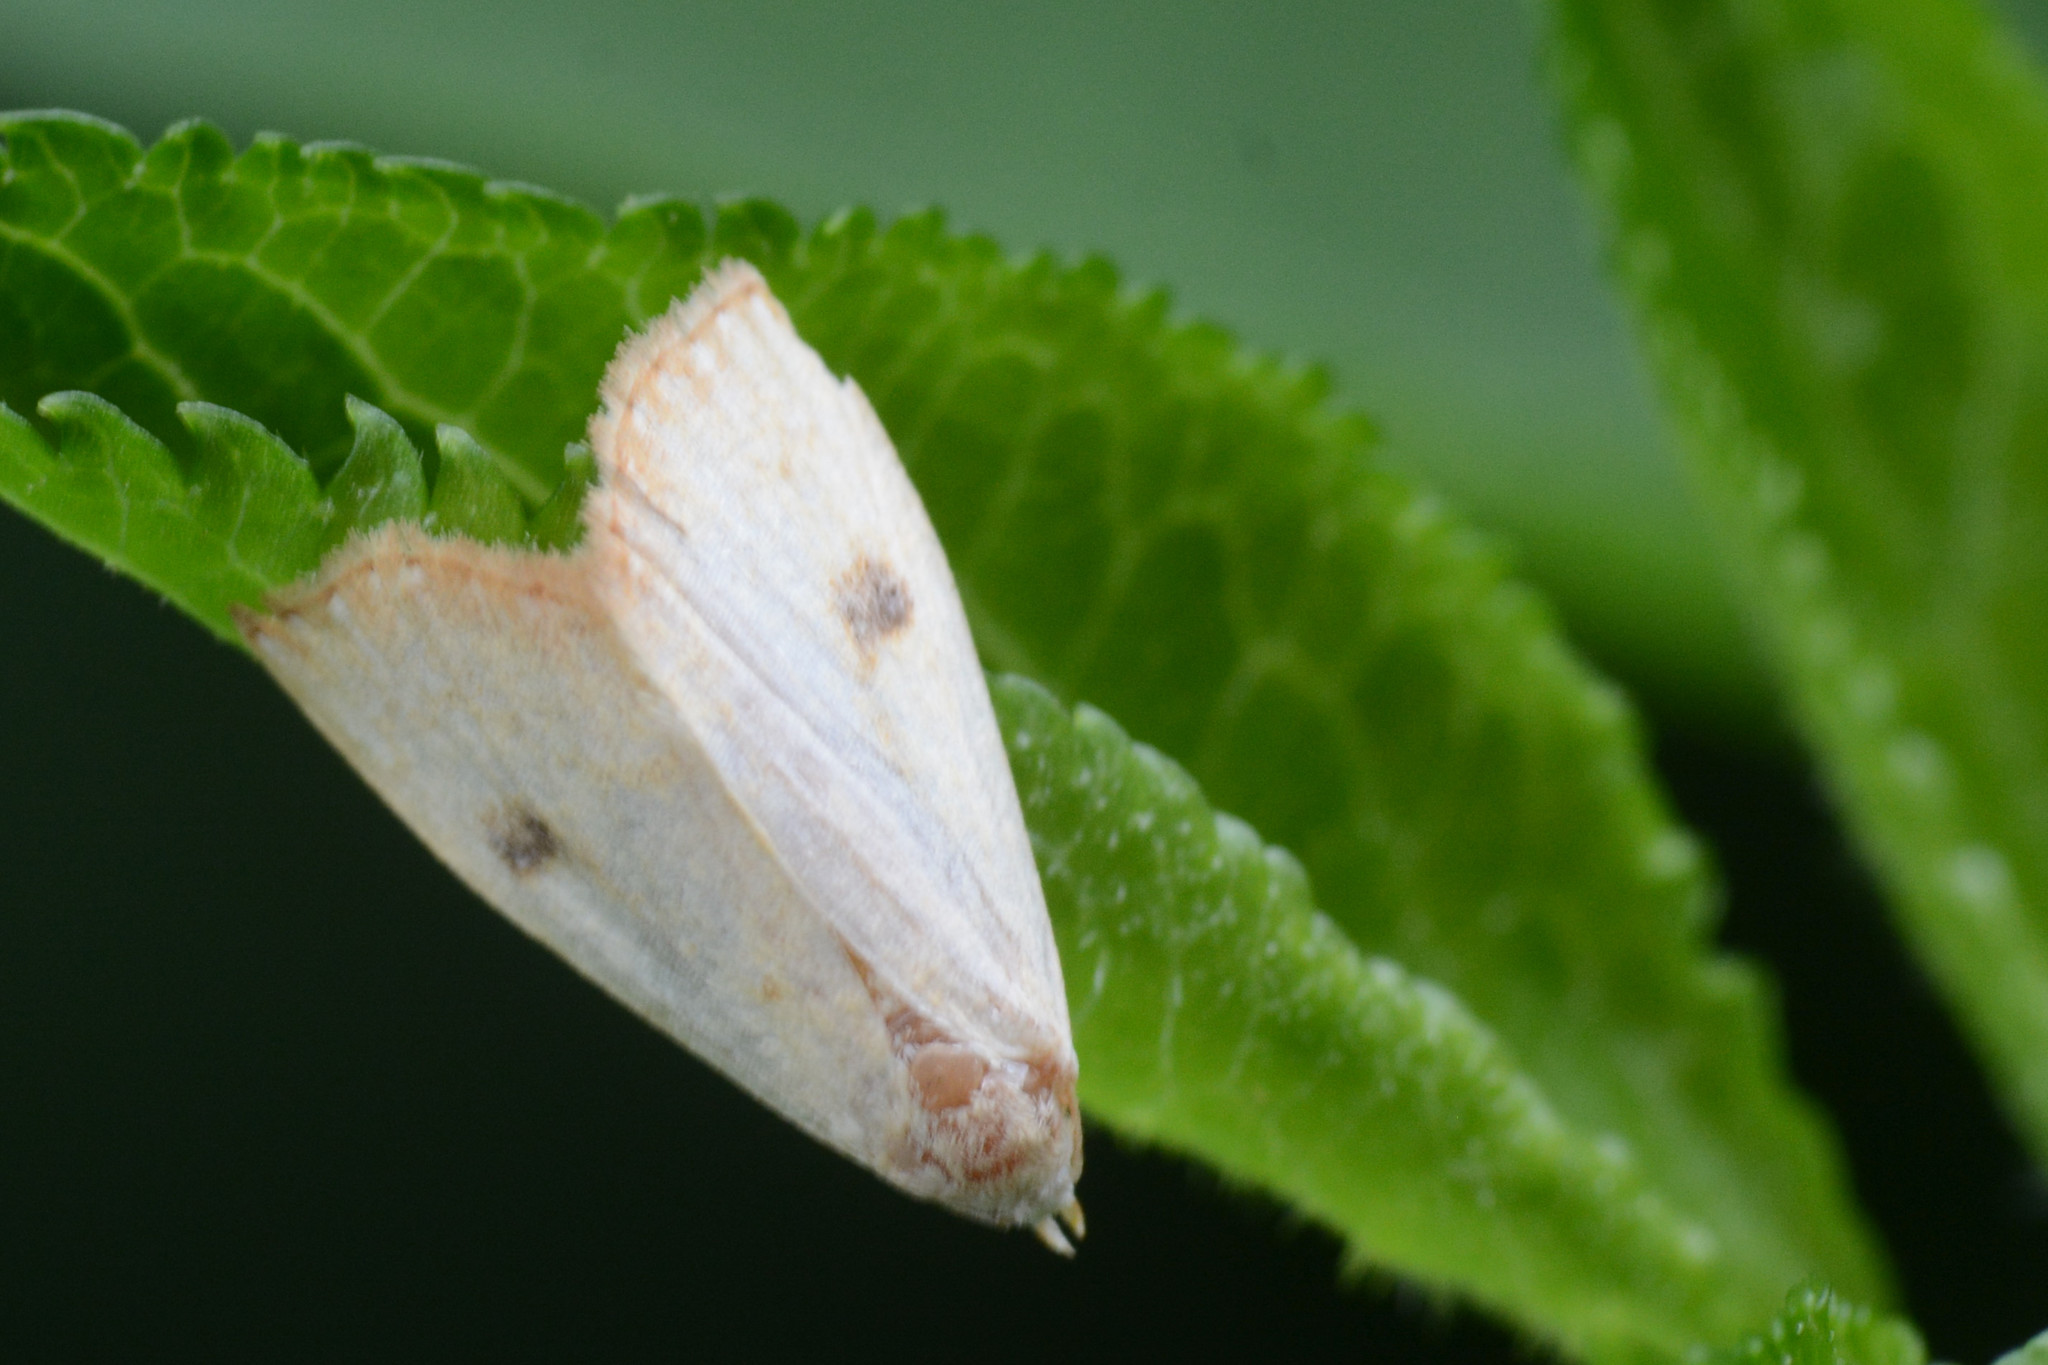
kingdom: Animalia
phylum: Arthropoda
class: Insecta
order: Lepidoptera
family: Erebidae
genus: Rivula
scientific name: Rivula sericealis
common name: Straw dot
